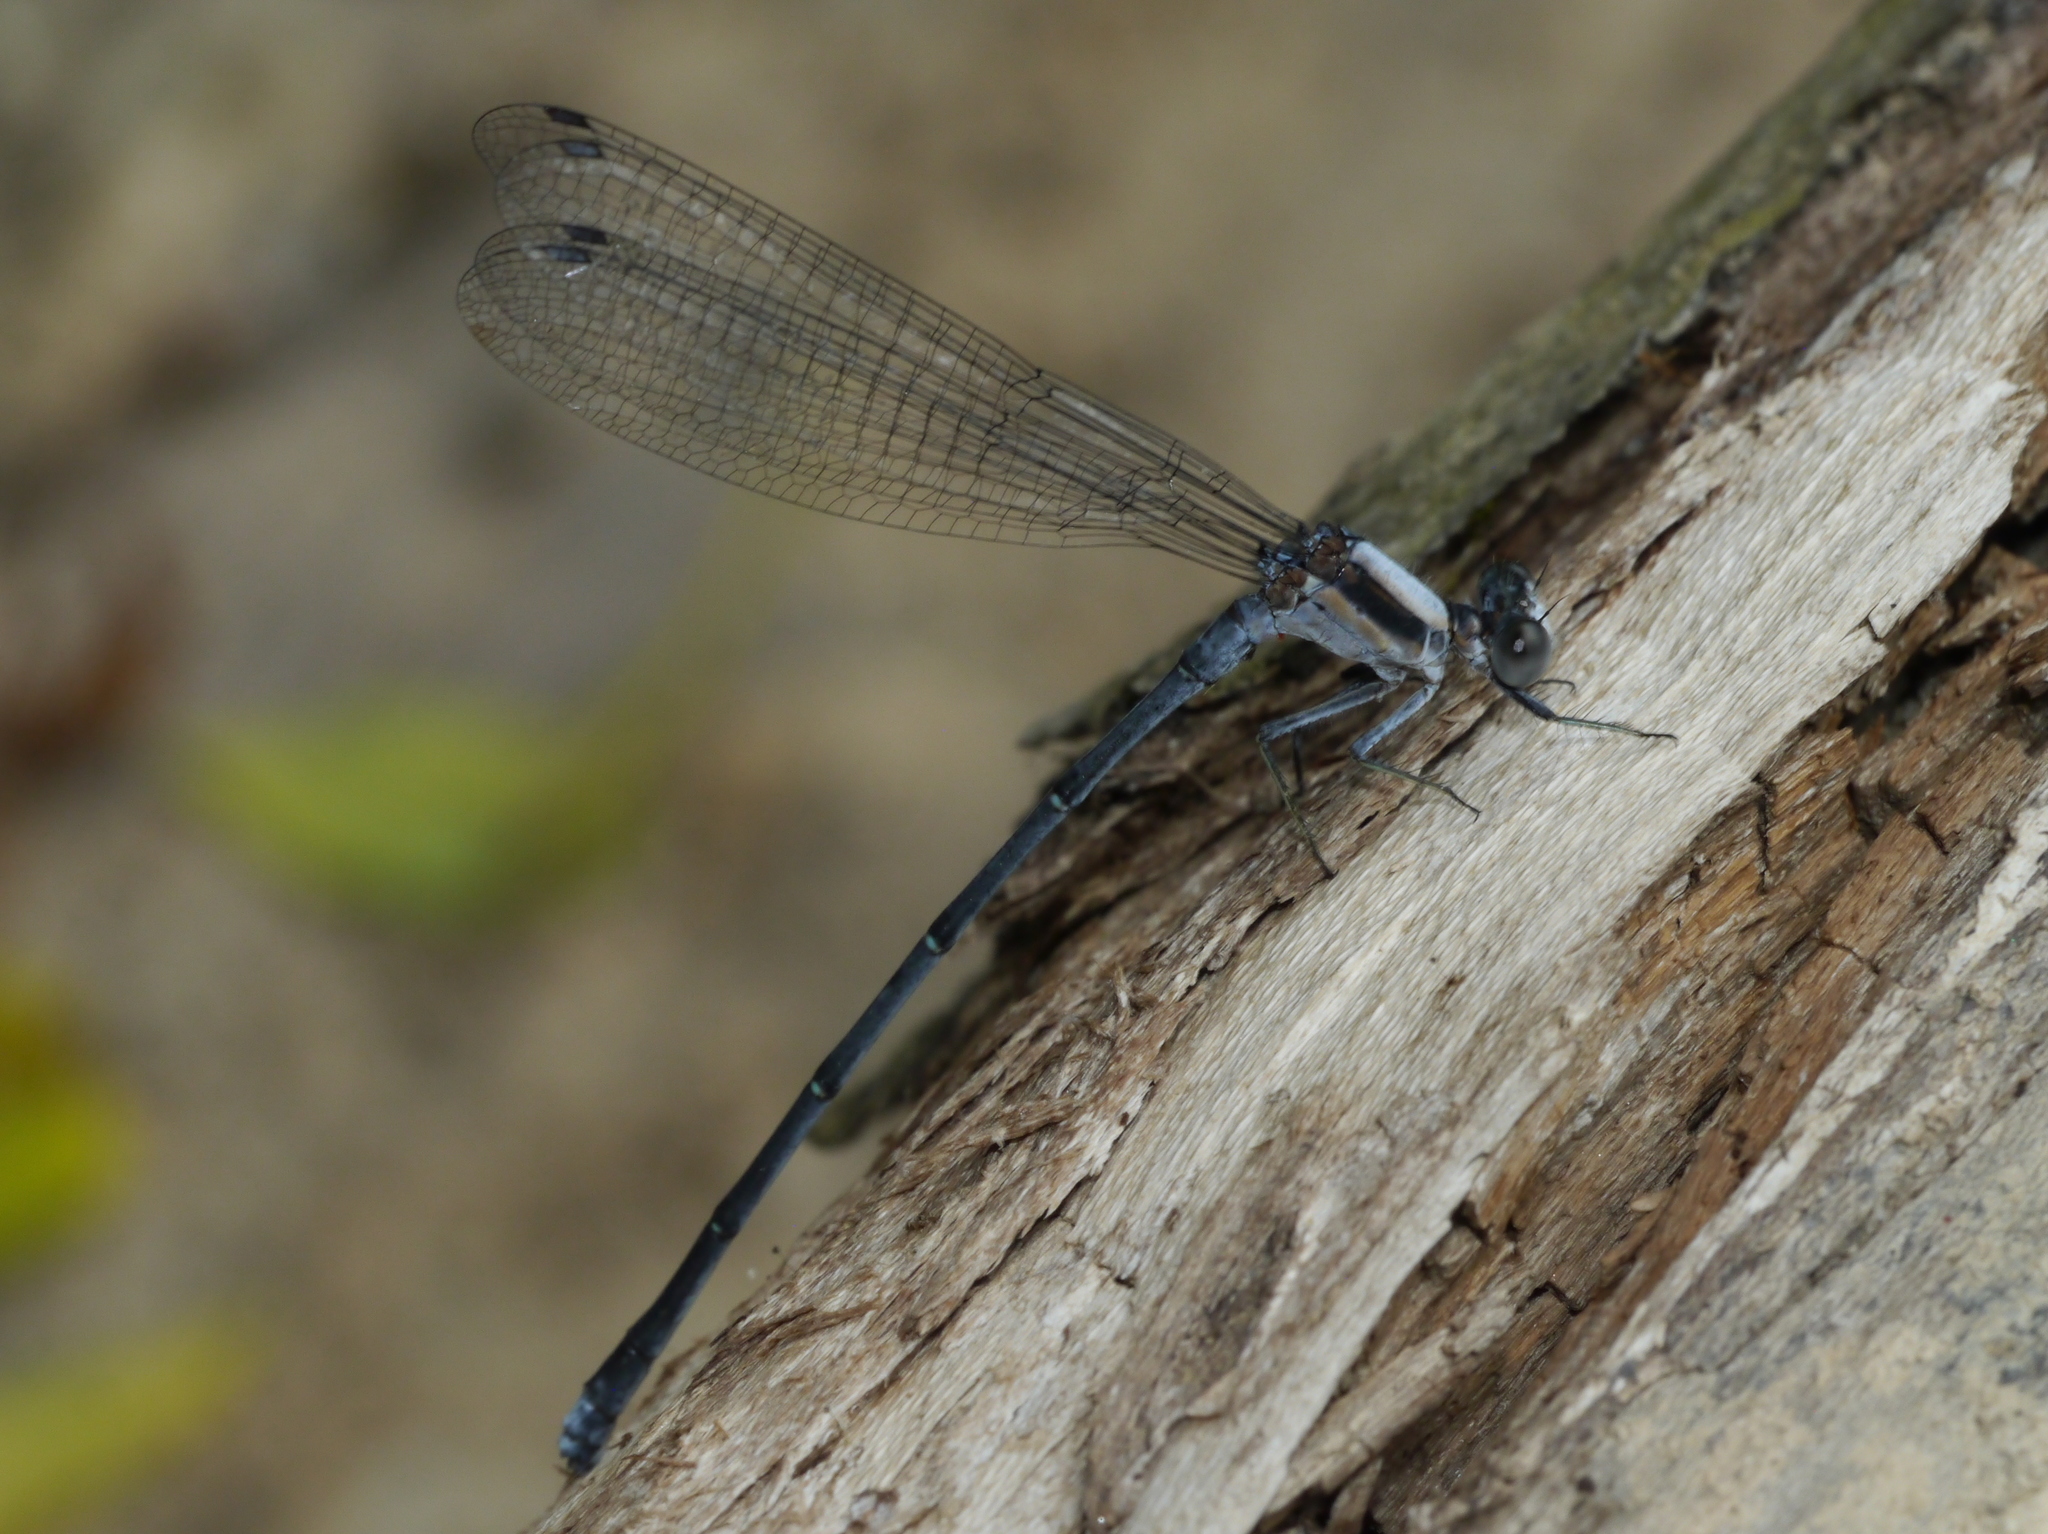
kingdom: Animalia
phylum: Arthropoda
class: Insecta
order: Odonata
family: Coenagrionidae
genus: Argia
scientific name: Argia moesta
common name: Powdered dancer
